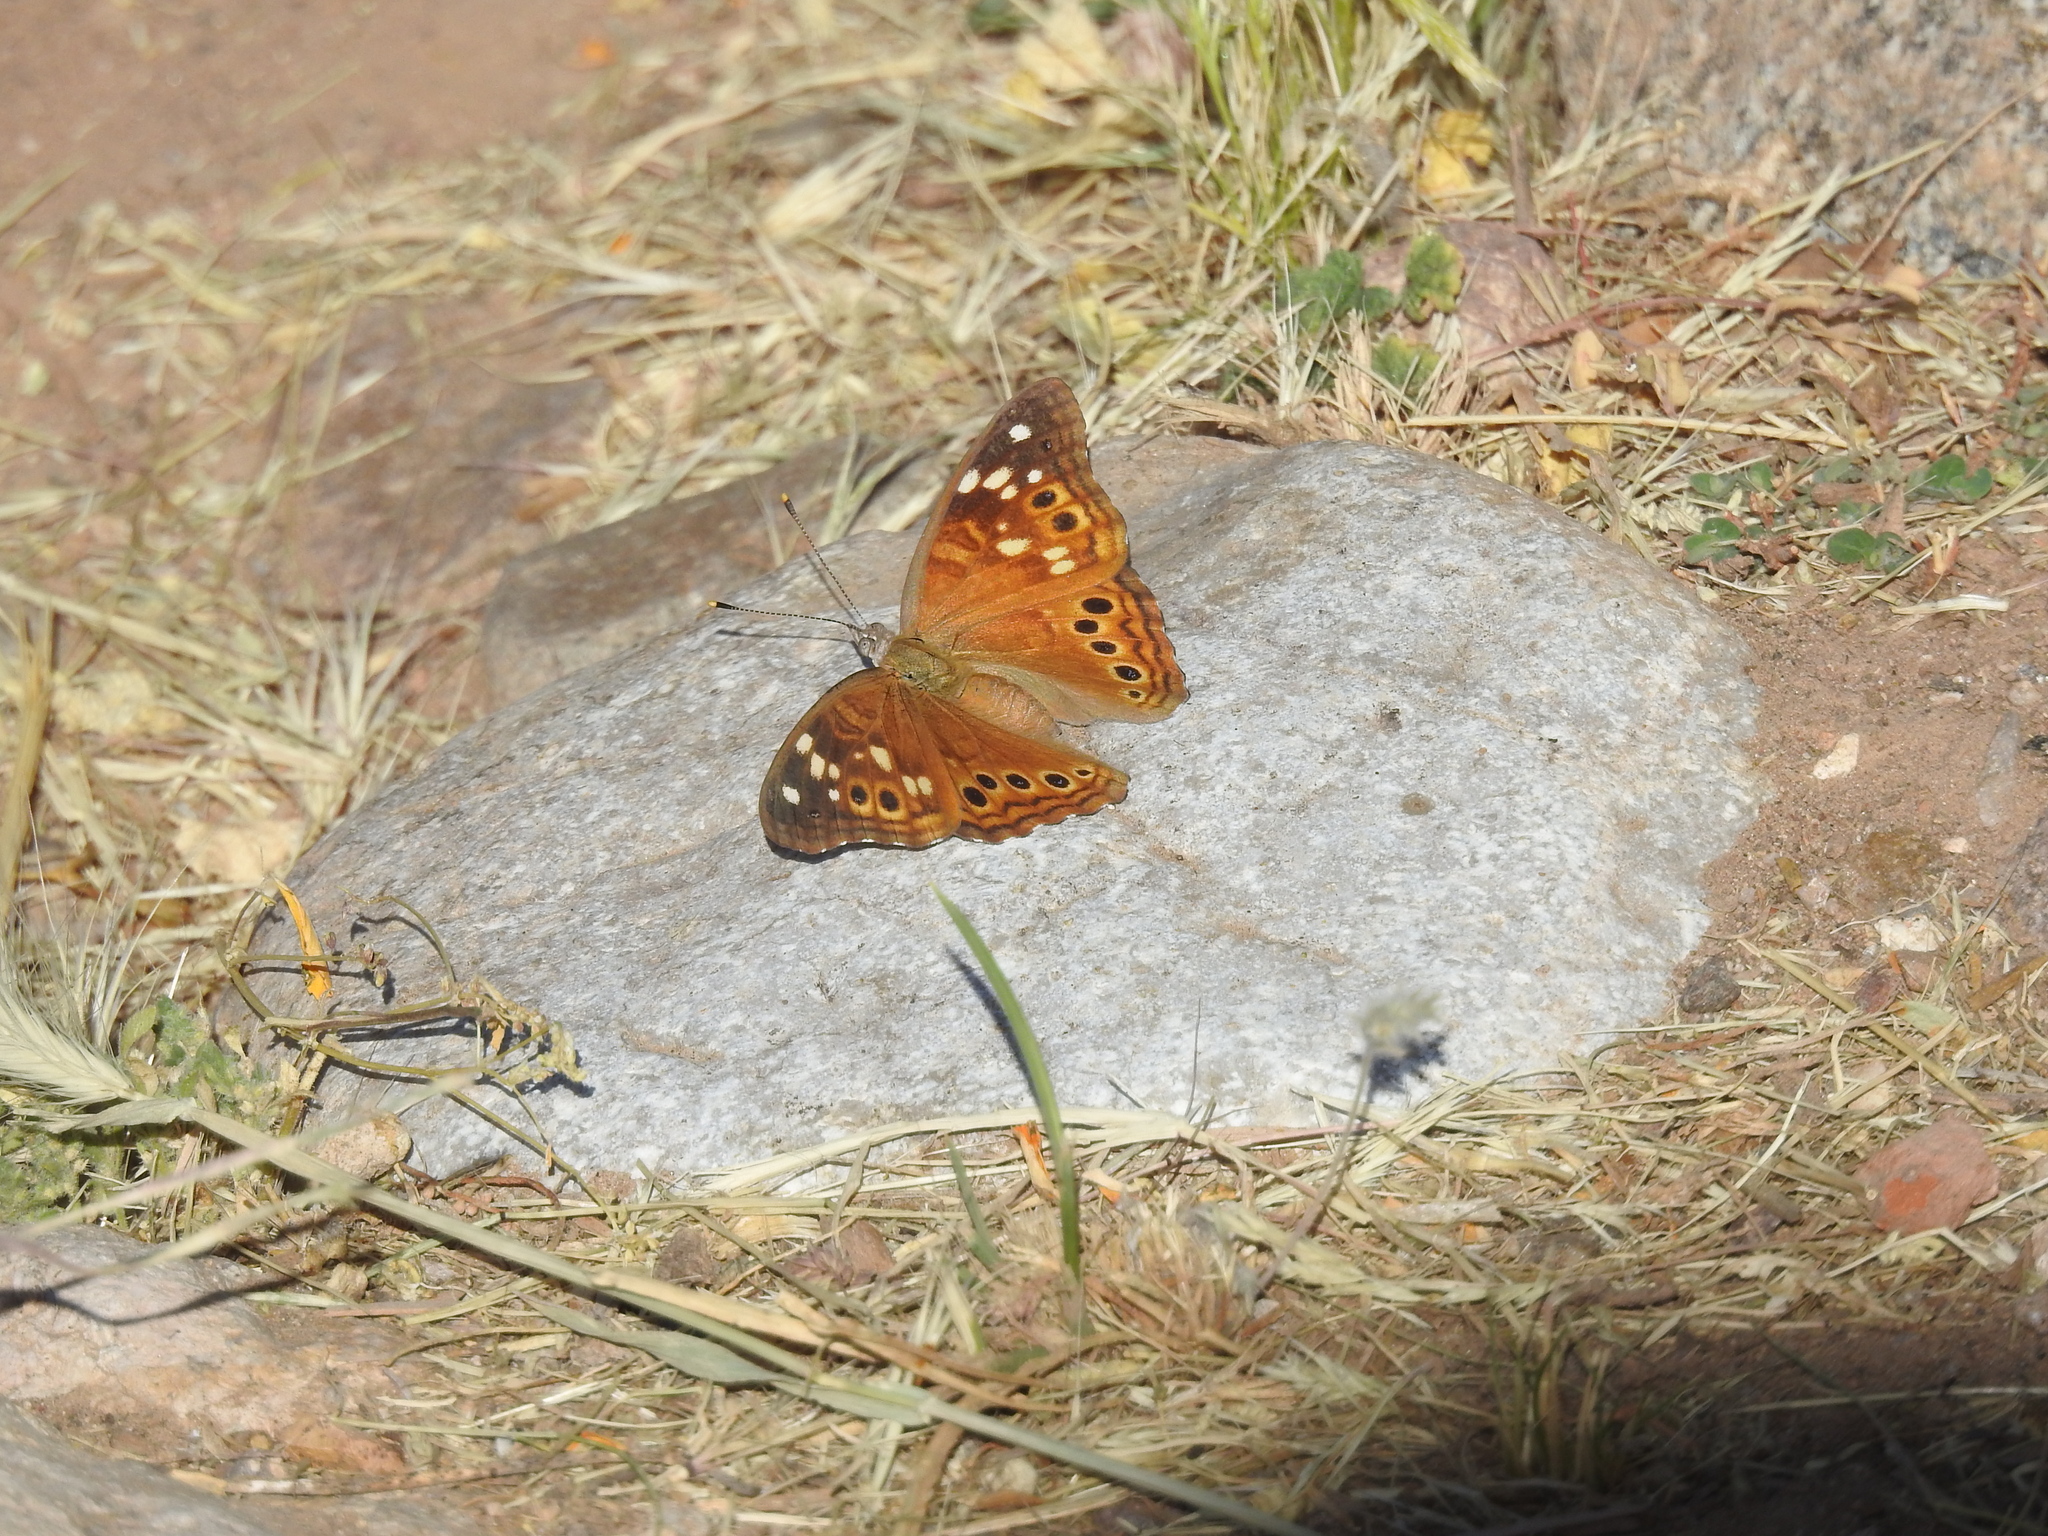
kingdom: Animalia
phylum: Arthropoda
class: Insecta
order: Lepidoptera
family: Nymphalidae
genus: Asterocampa
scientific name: Asterocampa leilia
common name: Empress leilia
